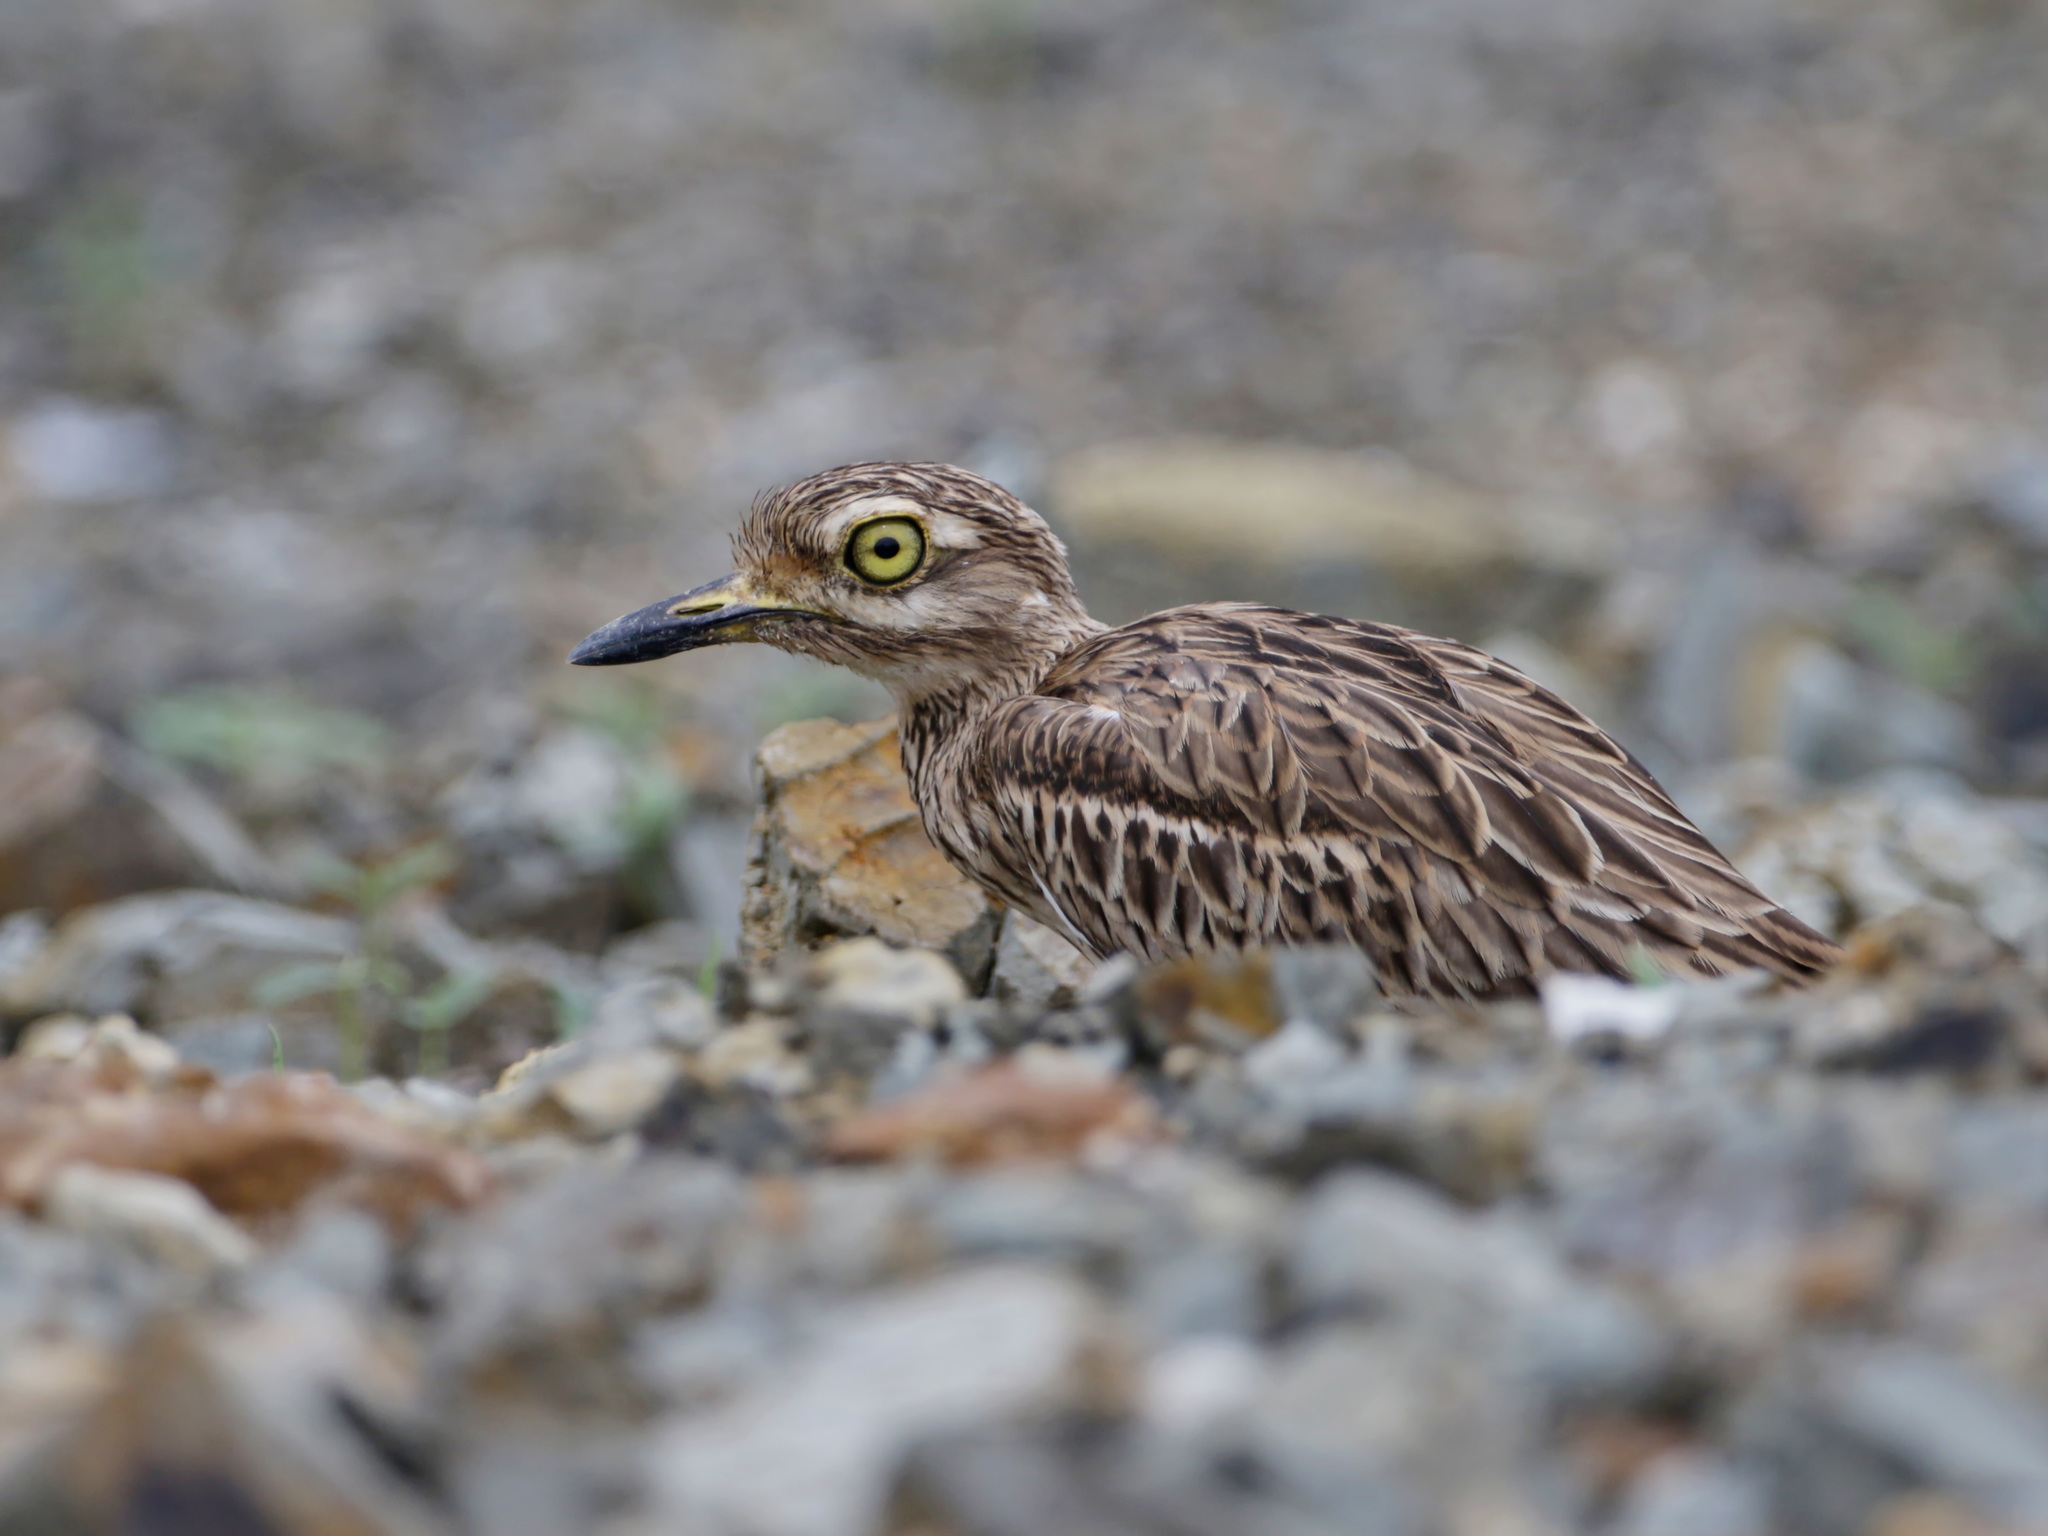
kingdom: Animalia
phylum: Chordata
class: Aves
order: Charadriiformes
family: Burhinidae
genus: Burhinus
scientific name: Burhinus indicus
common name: Indian thick-knee
